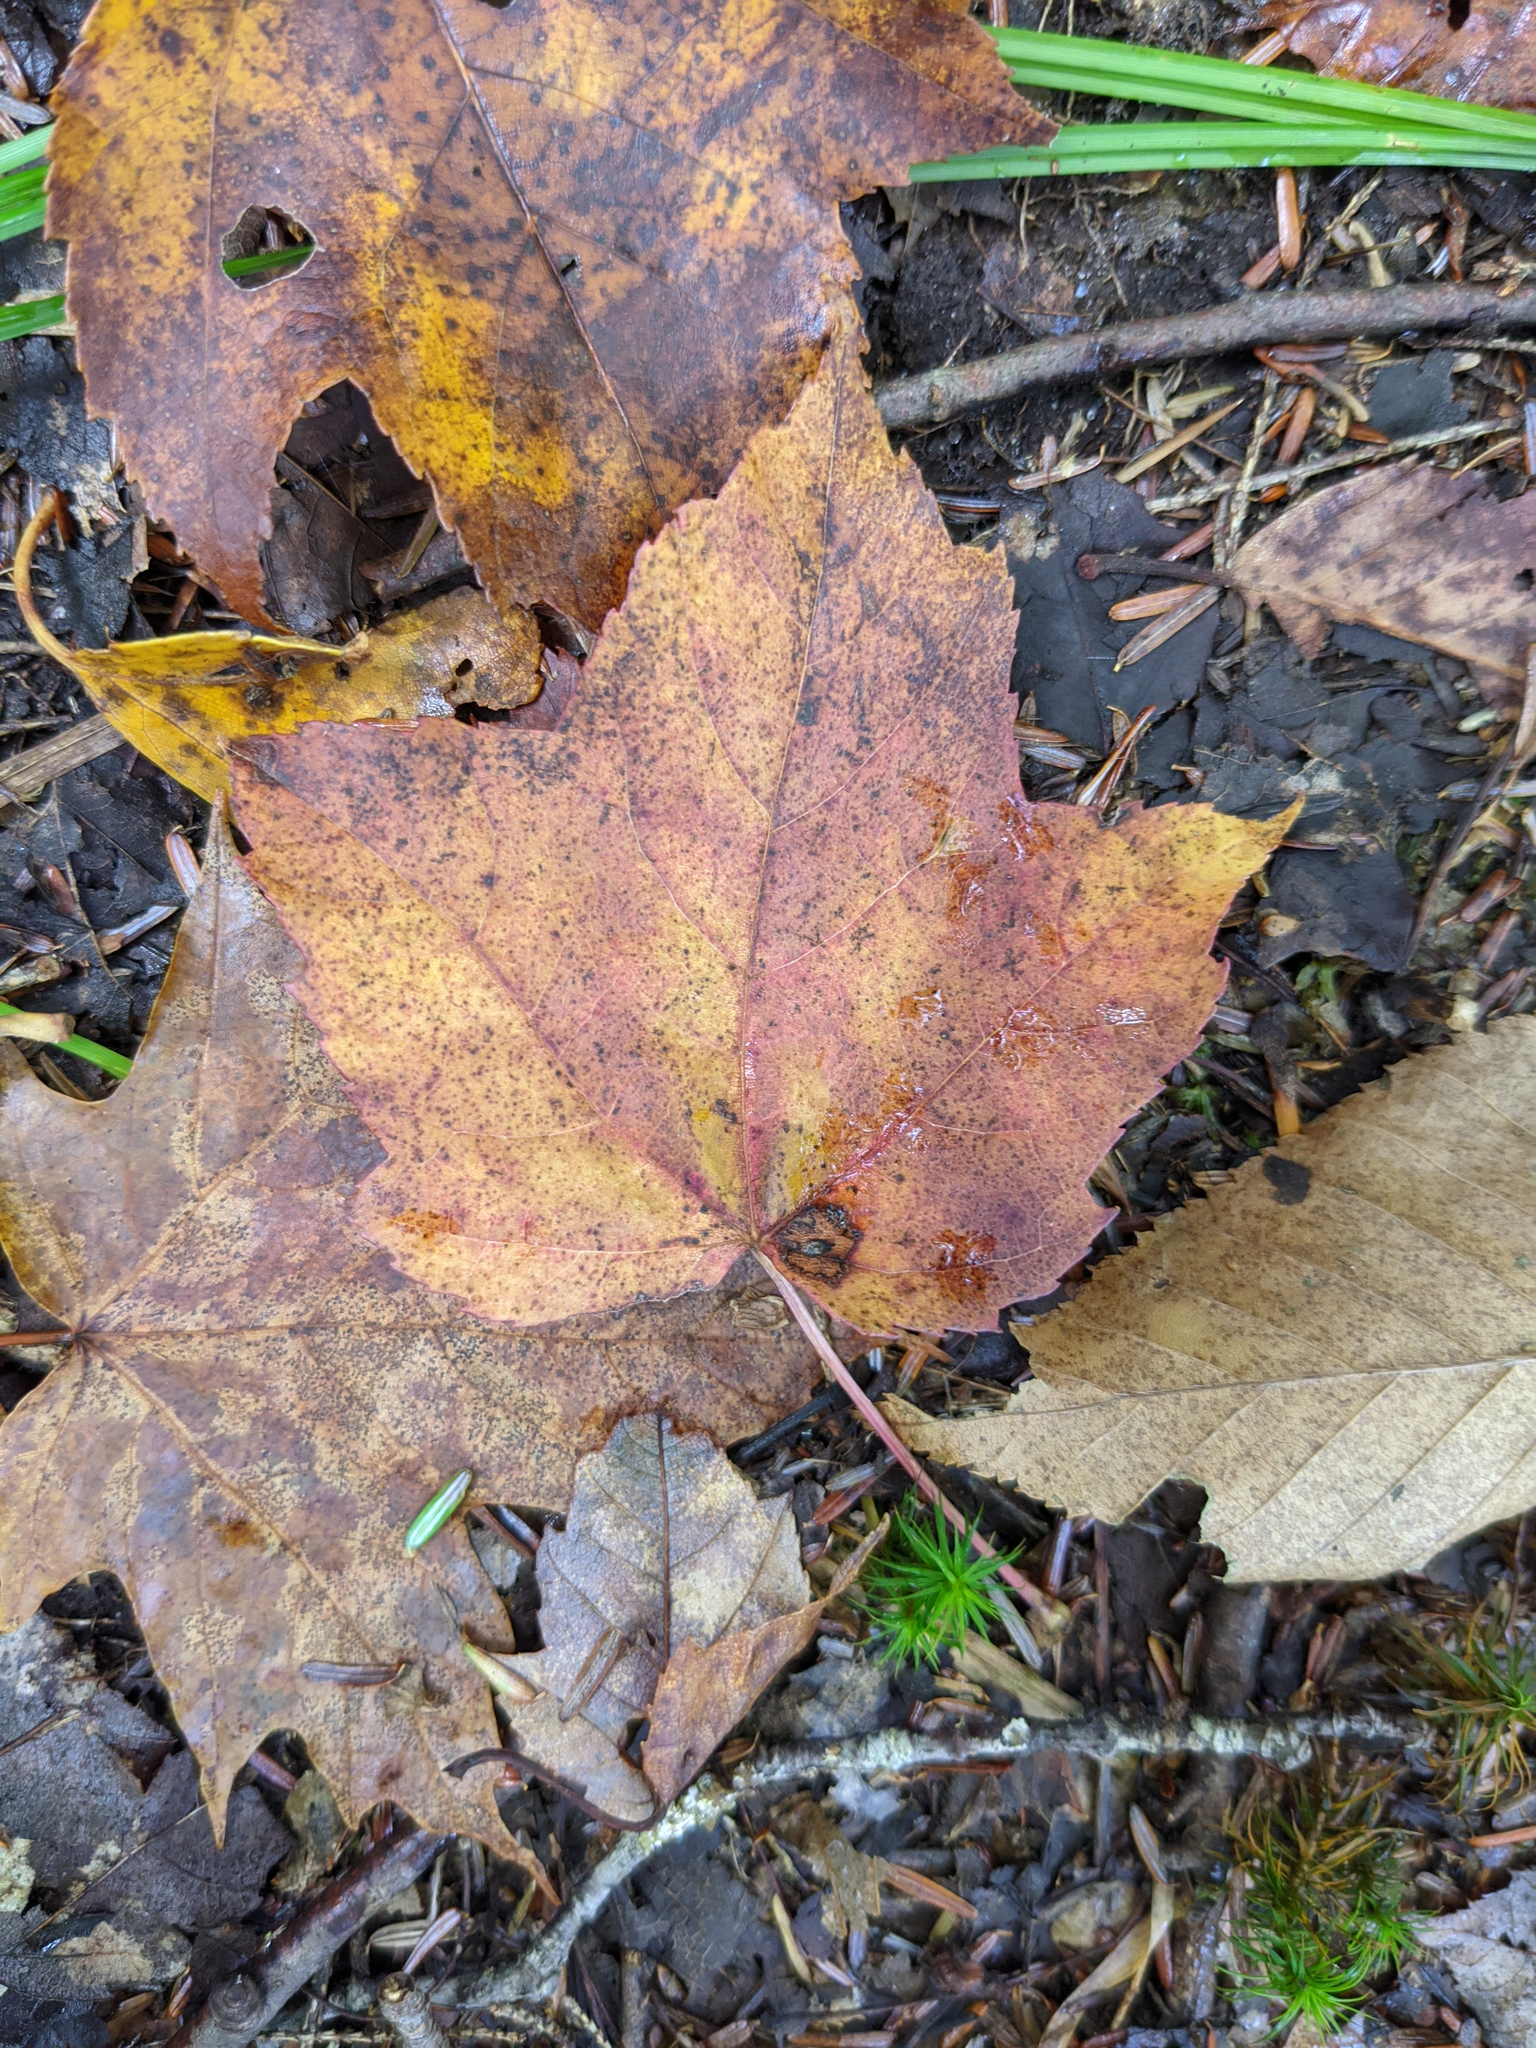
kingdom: Plantae
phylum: Tracheophyta
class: Magnoliopsida
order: Sapindales
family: Sapindaceae
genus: Acer
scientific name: Acer rubrum
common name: Red maple
